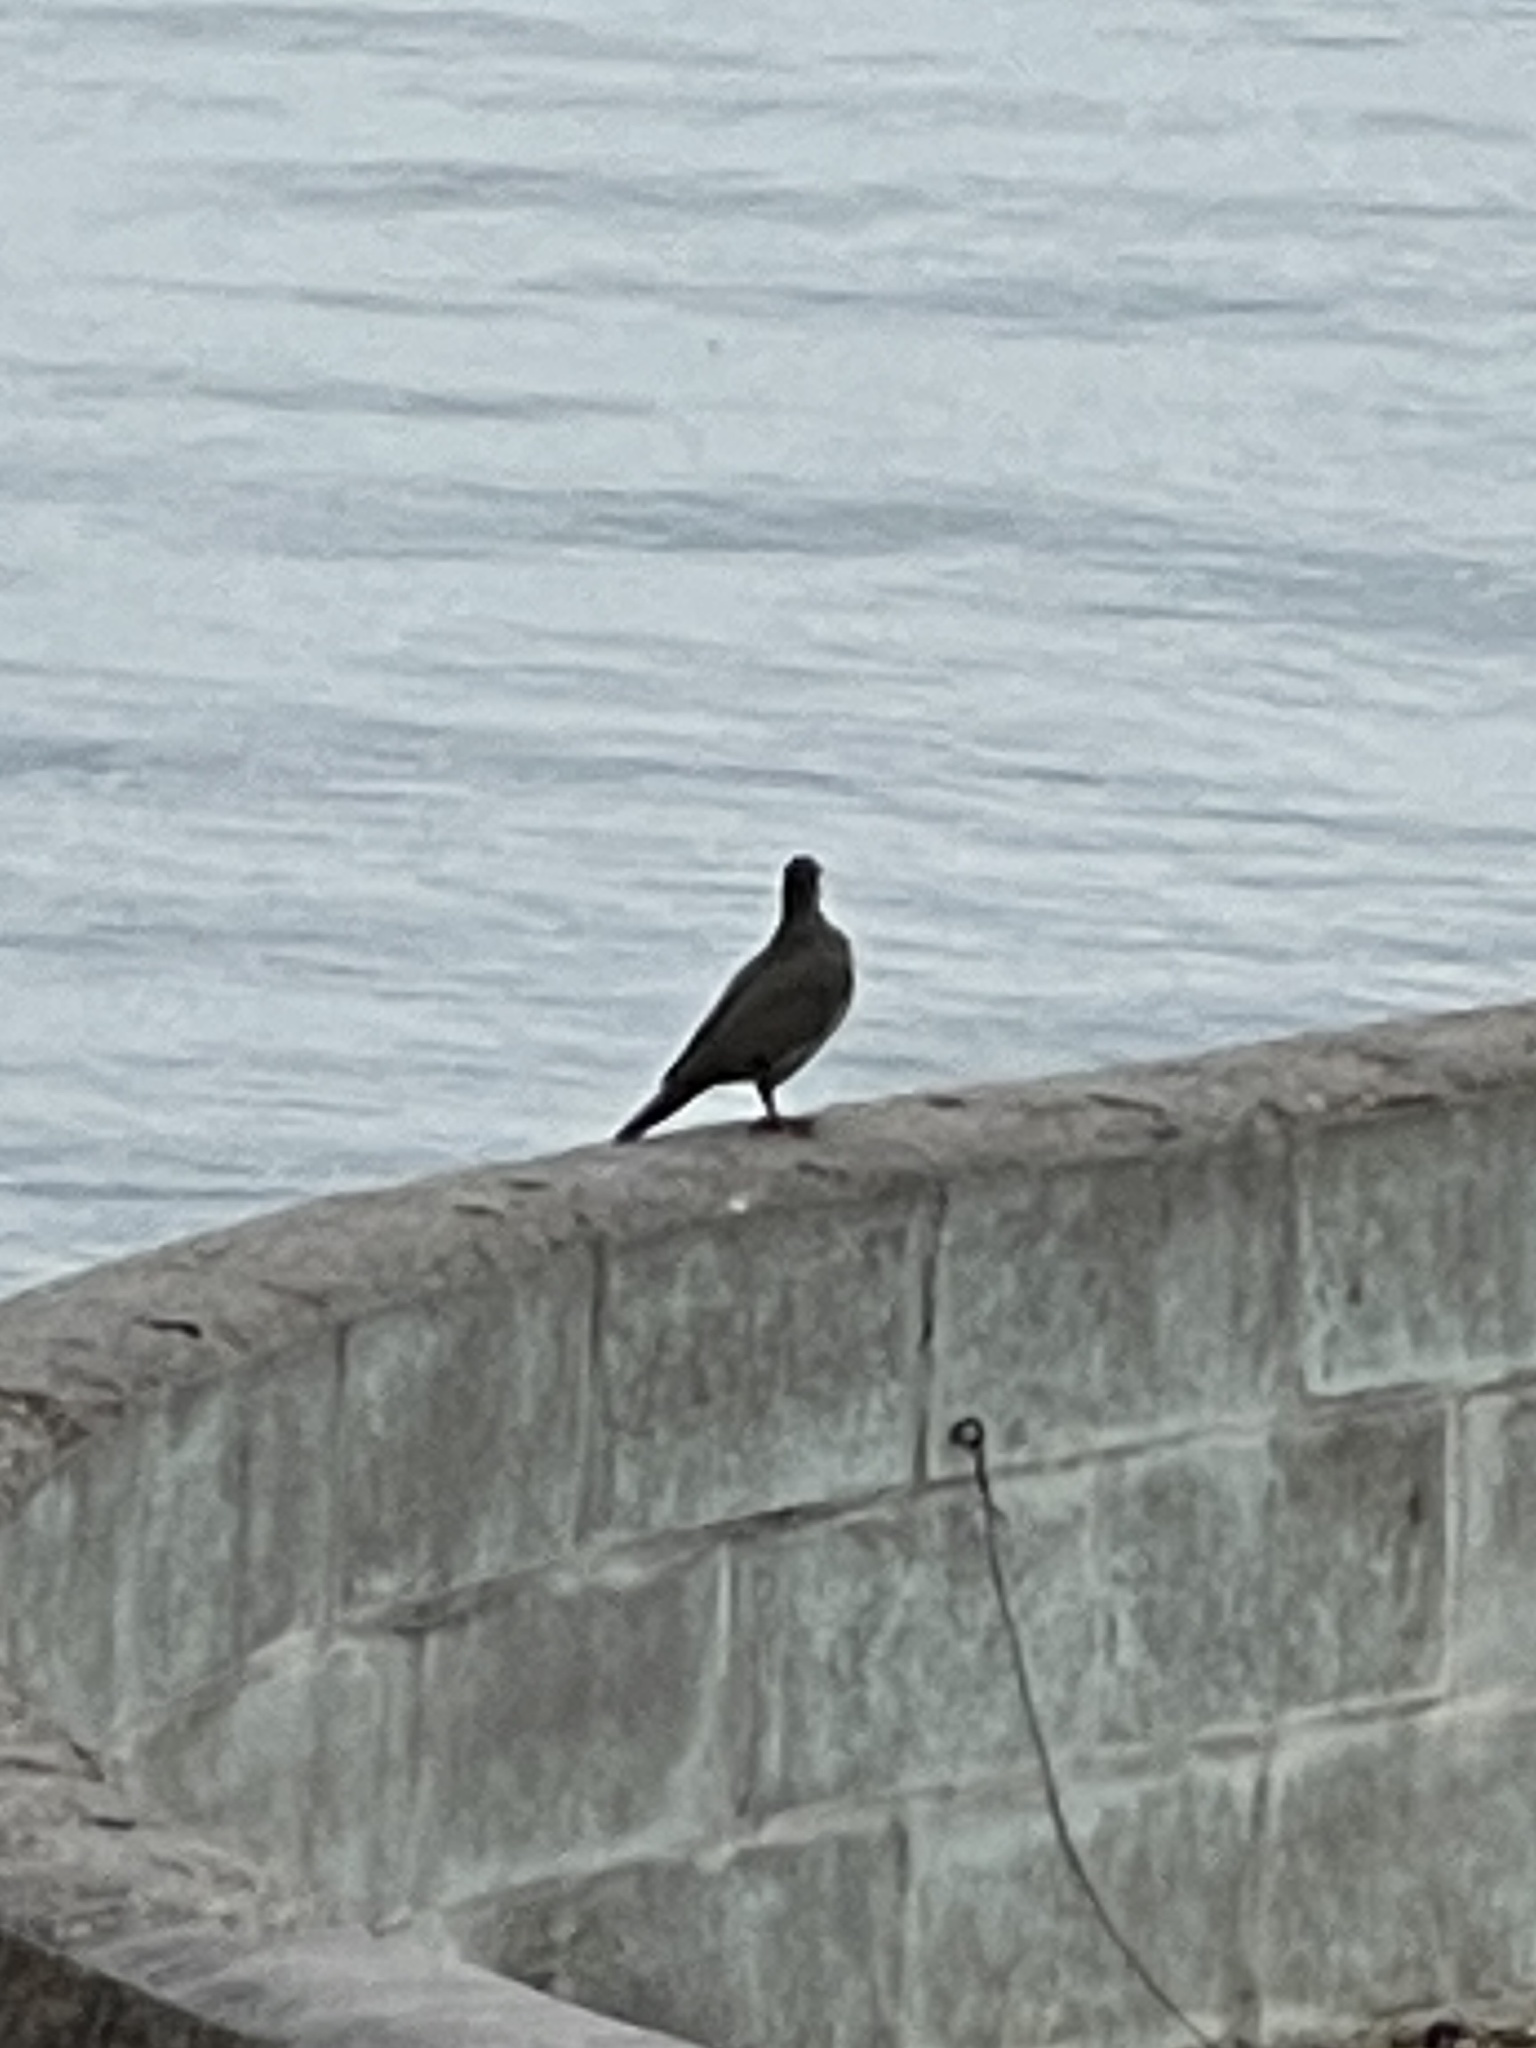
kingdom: Animalia
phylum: Chordata
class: Aves
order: Columbiformes
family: Columbidae
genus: Zenaida
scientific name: Zenaida asiatica
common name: White-winged dove
